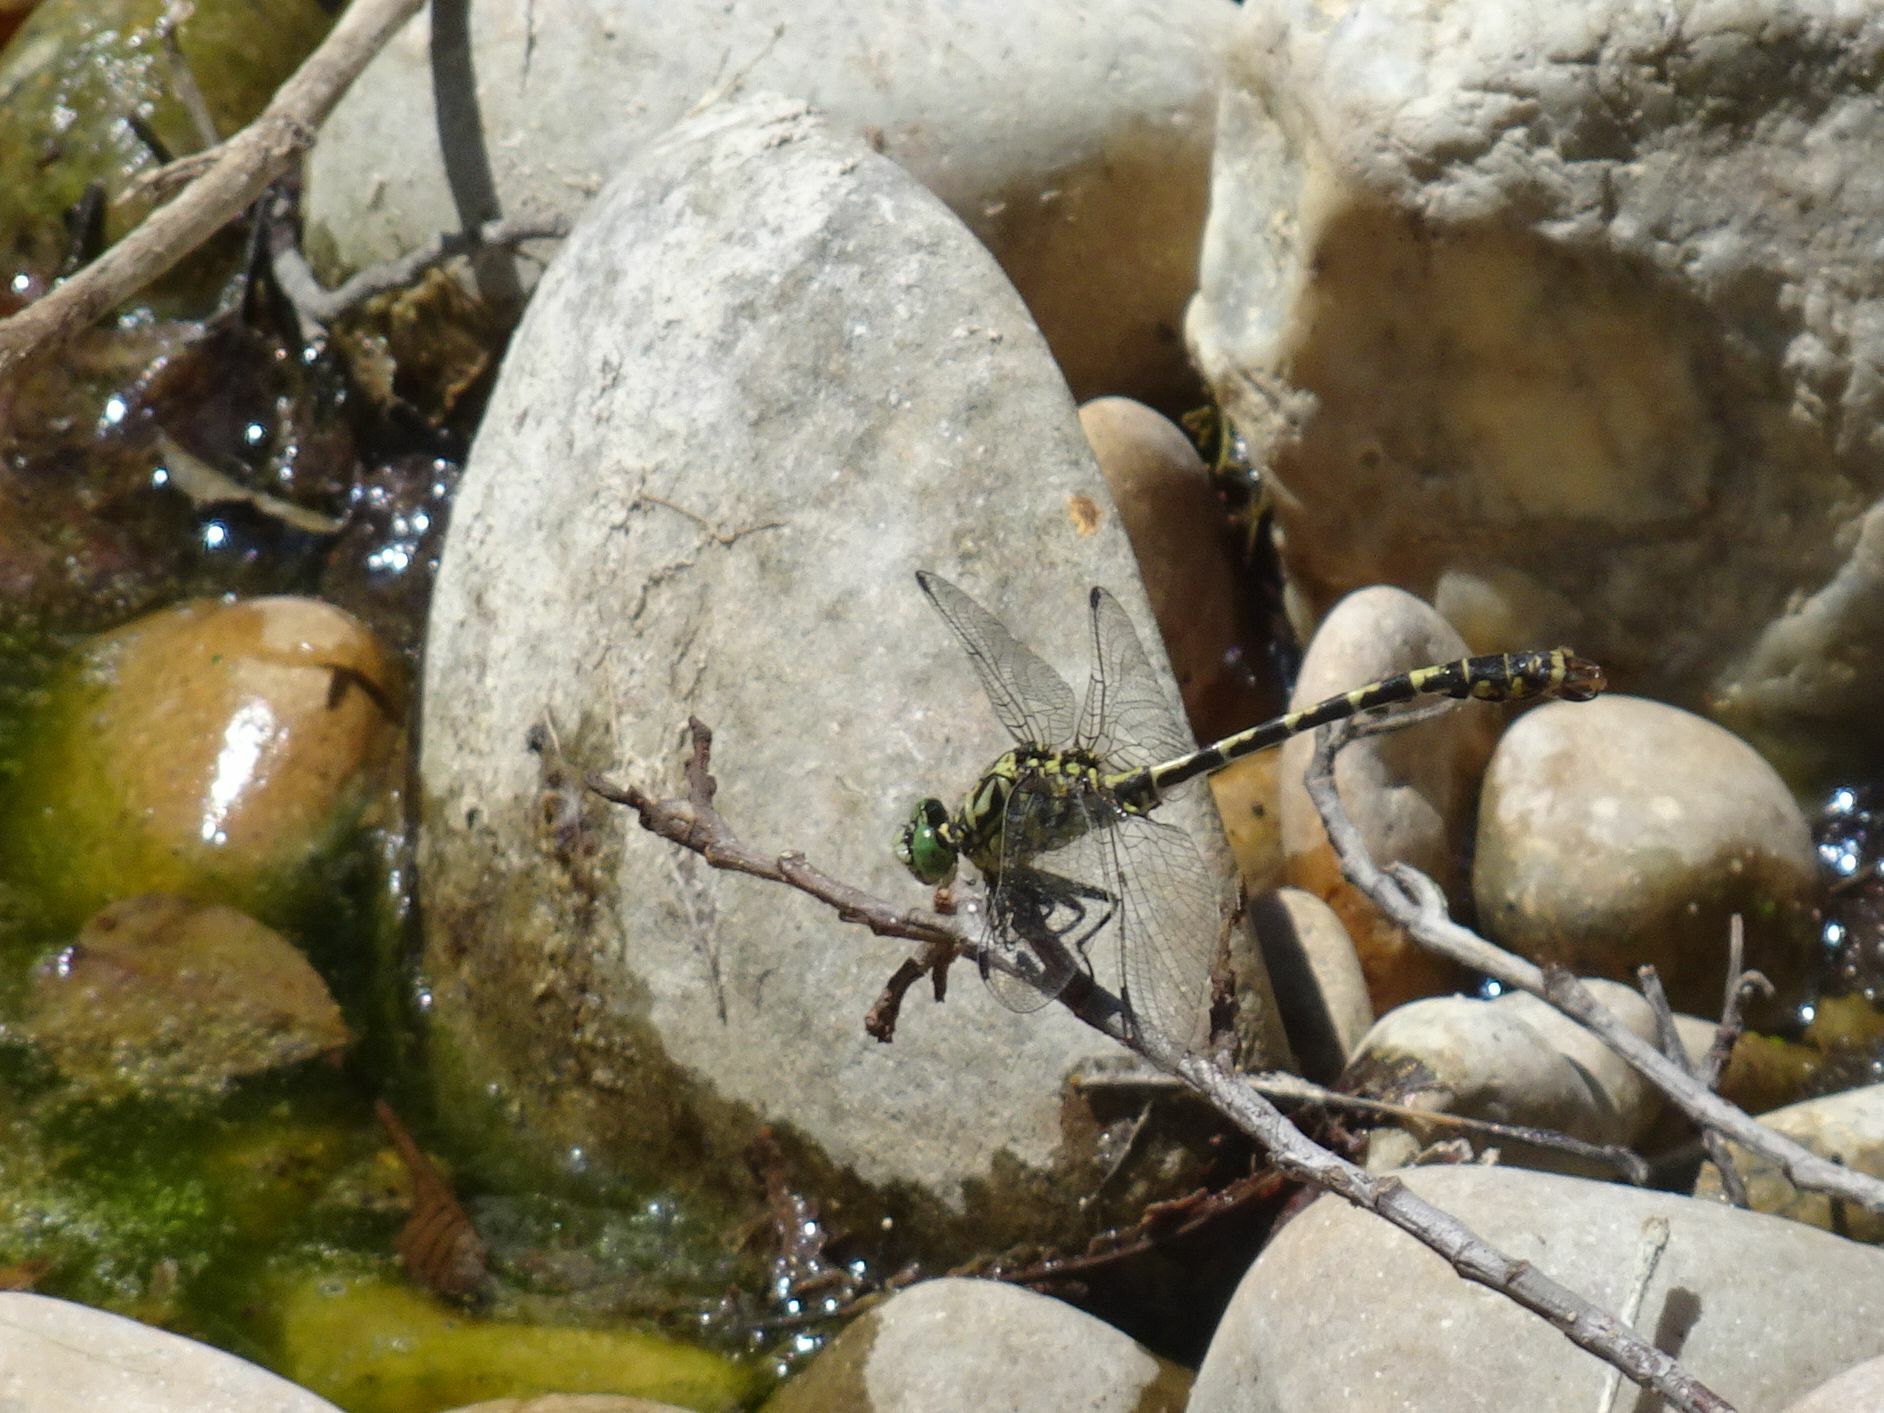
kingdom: Animalia
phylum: Arthropoda
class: Insecta
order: Odonata
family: Gomphidae
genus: Onychogomphus
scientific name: Onychogomphus forcipatus
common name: Small pincertail
